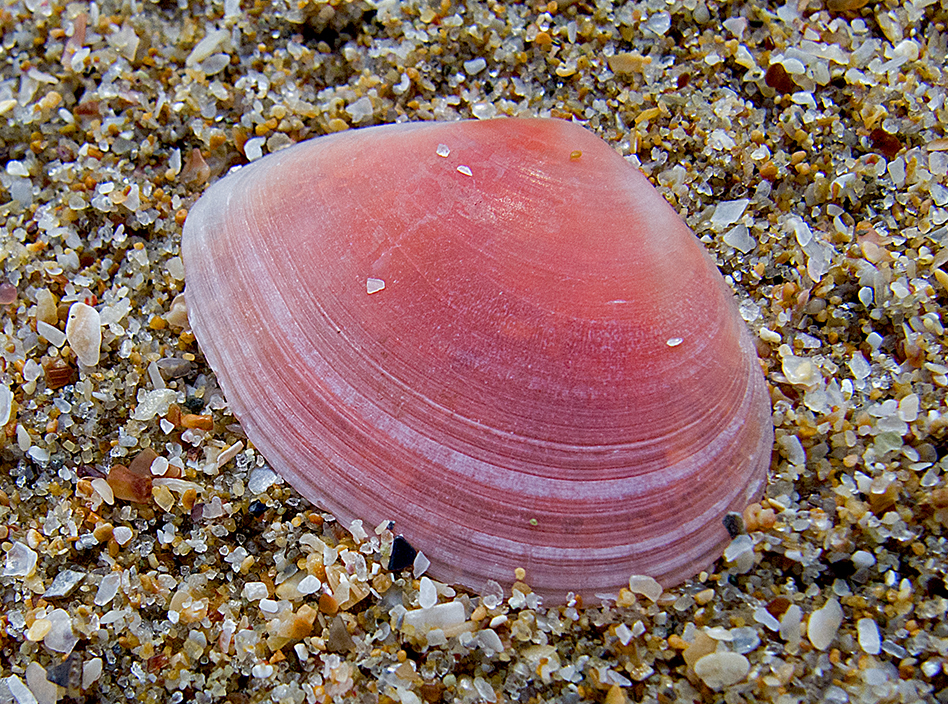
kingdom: Animalia
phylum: Mollusca
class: Bivalvia
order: Cardiida
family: Tellinidae
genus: Macomangulus
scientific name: Macomangulus tenuis
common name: Thin tellin
